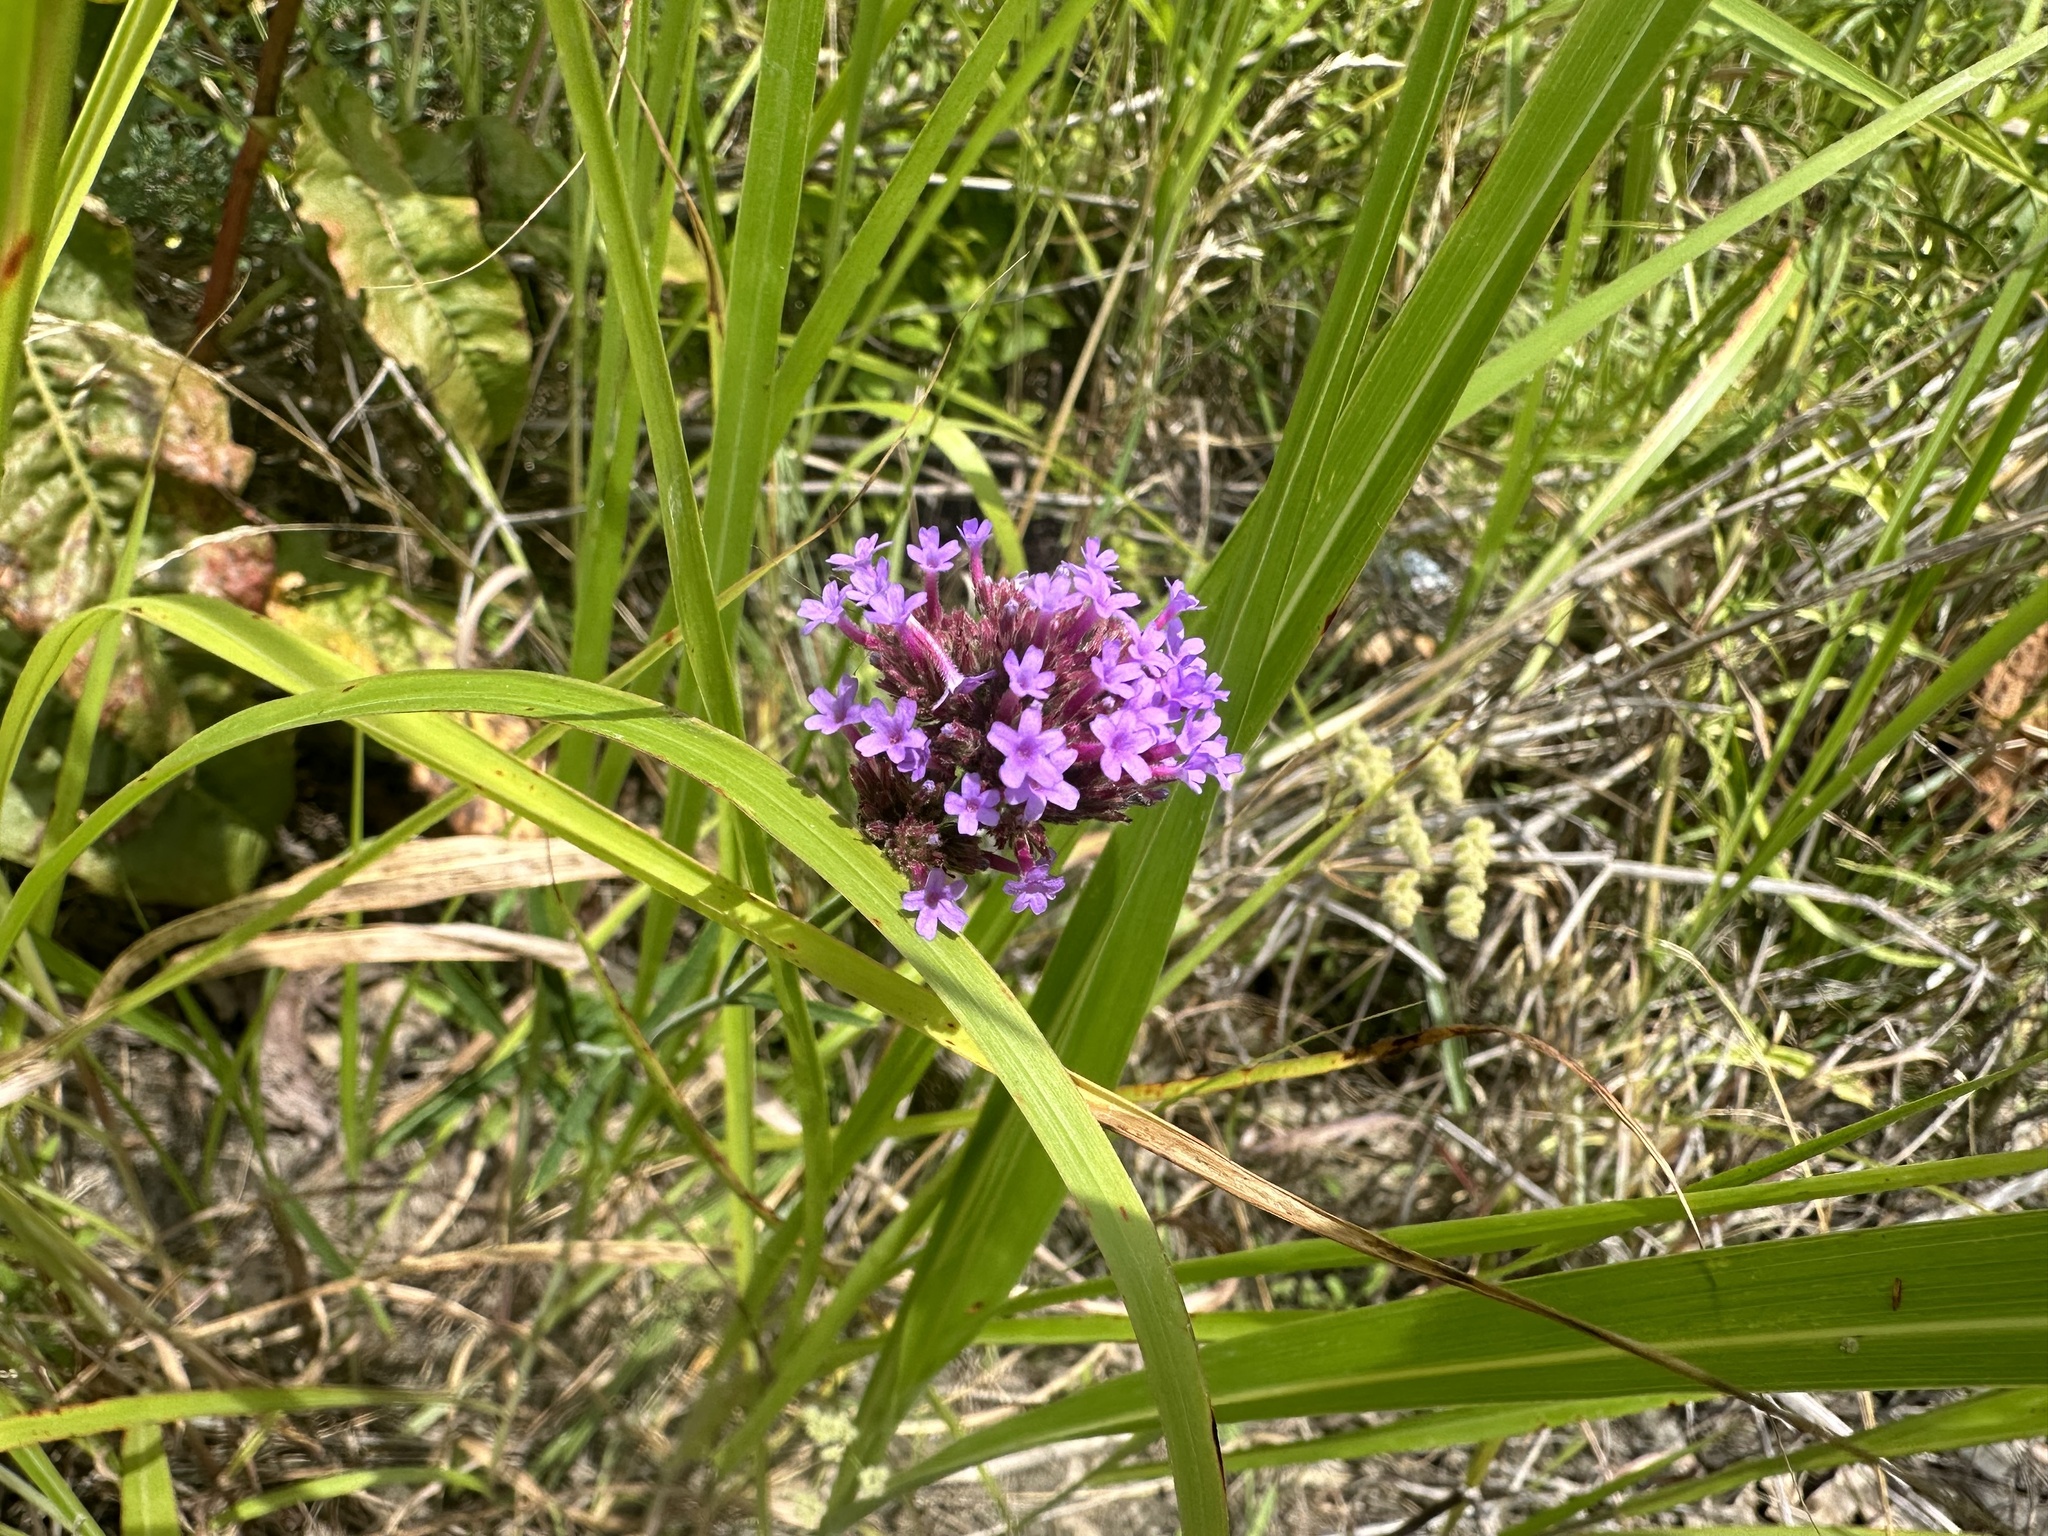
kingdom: Plantae
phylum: Tracheophyta
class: Magnoliopsida
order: Lamiales
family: Verbenaceae
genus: Verbena
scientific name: Verbena bonariensis
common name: Purpletop vervain
